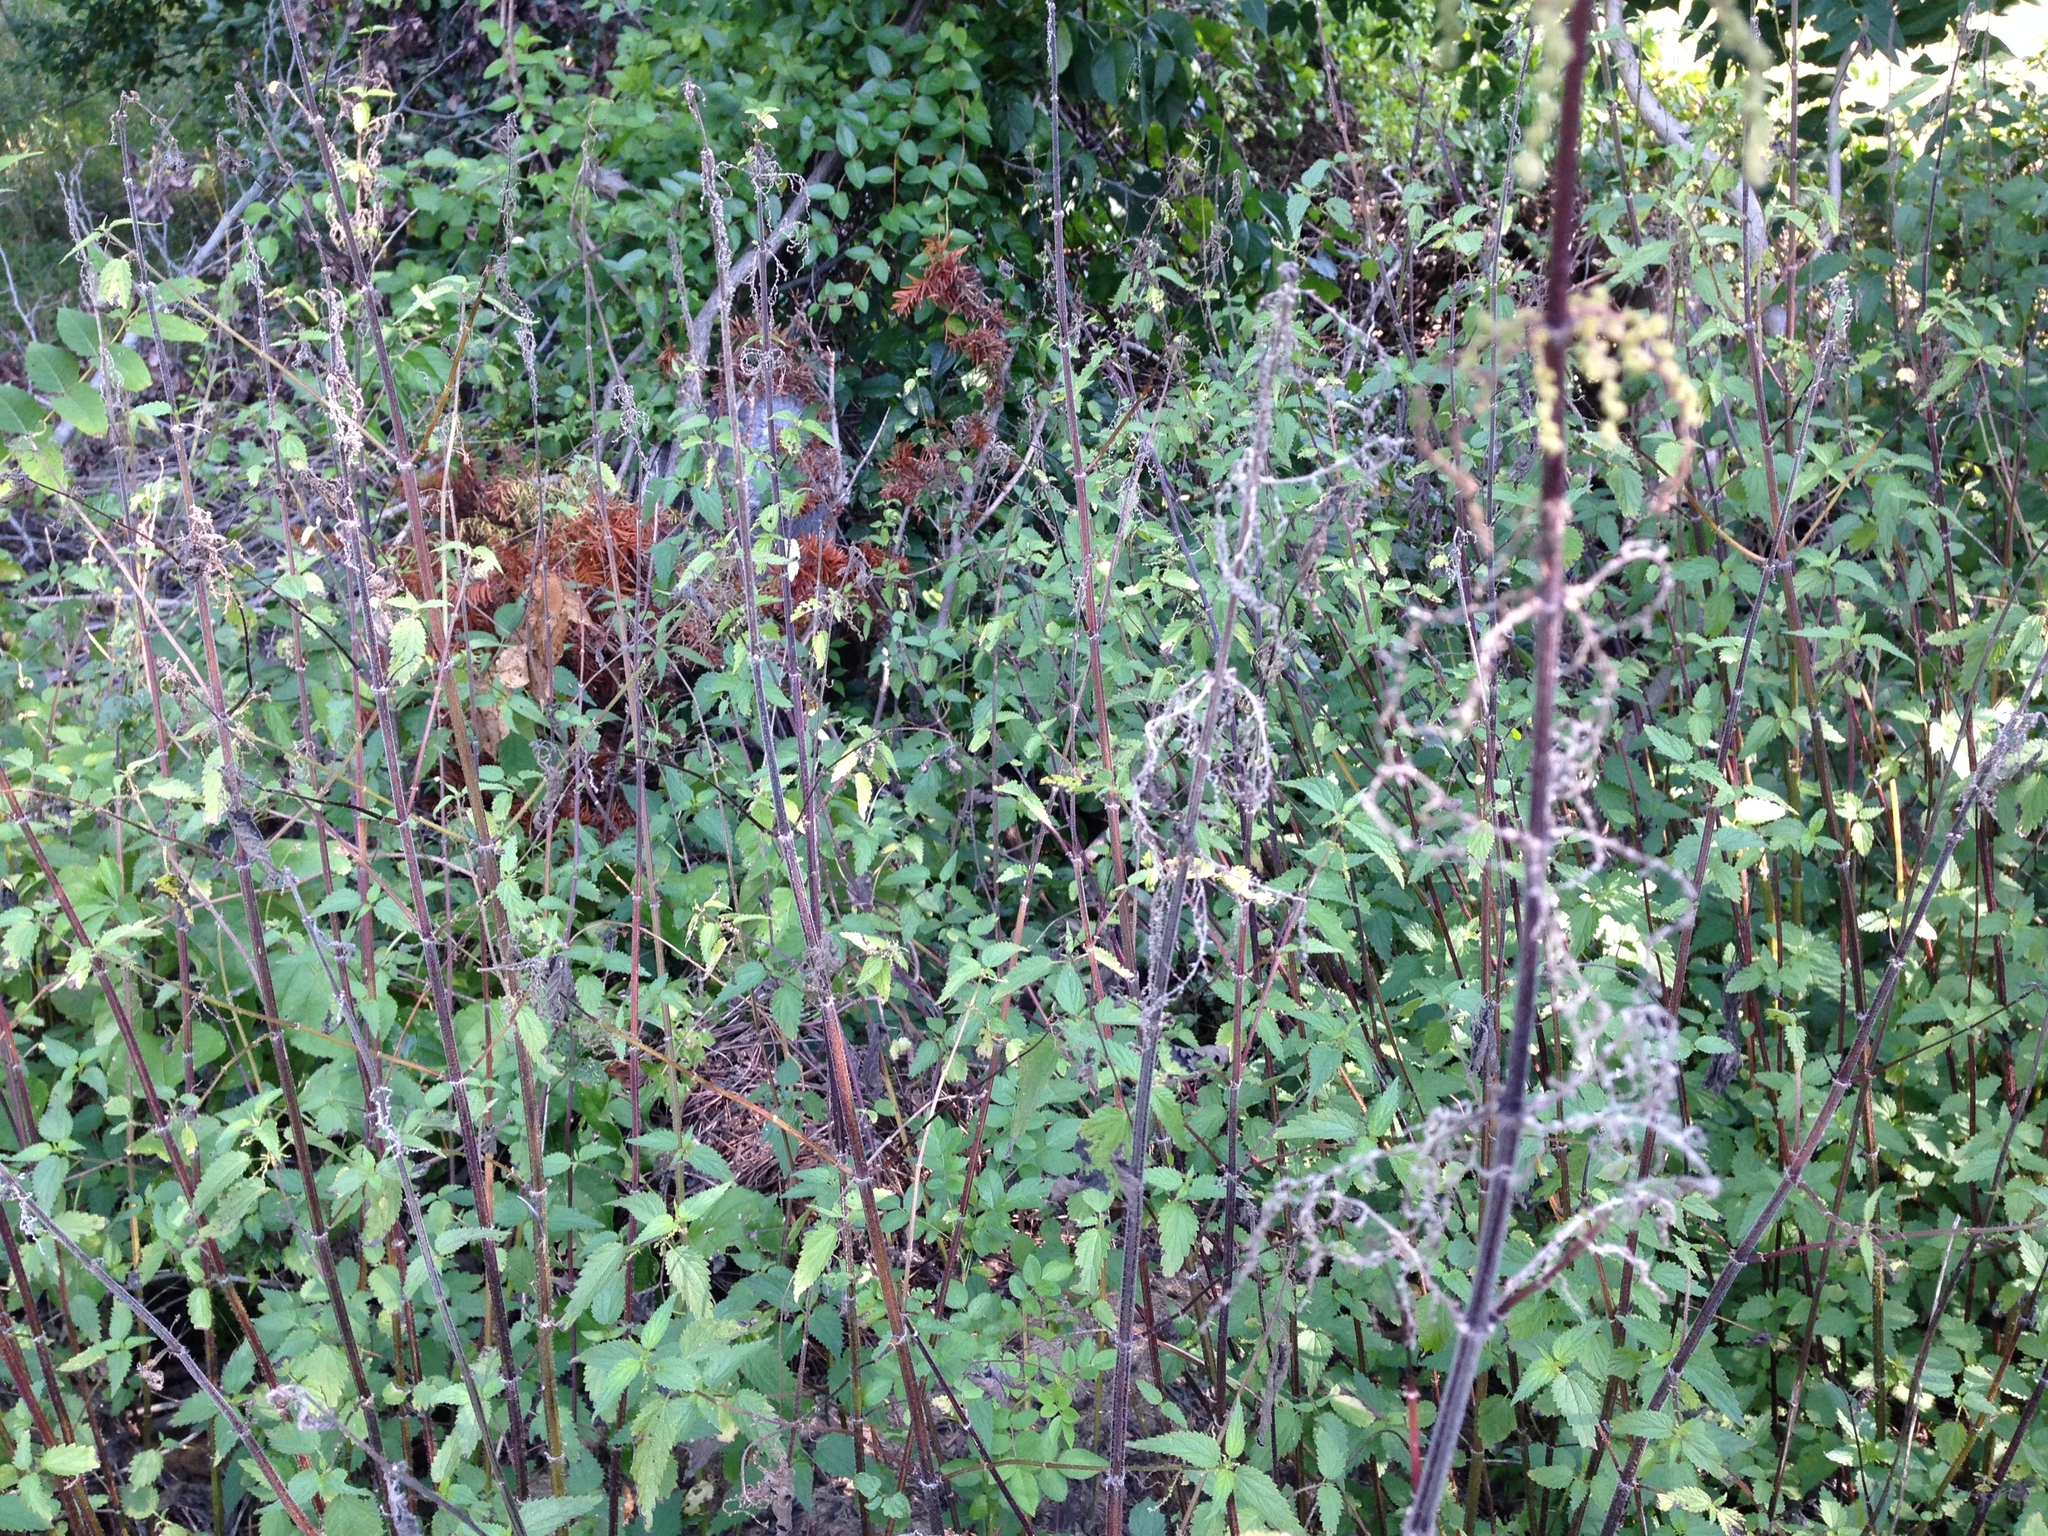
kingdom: Plantae
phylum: Tracheophyta
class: Magnoliopsida
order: Rosales
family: Urticaceae
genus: Urtica
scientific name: Urtica dioica
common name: Common nettle
